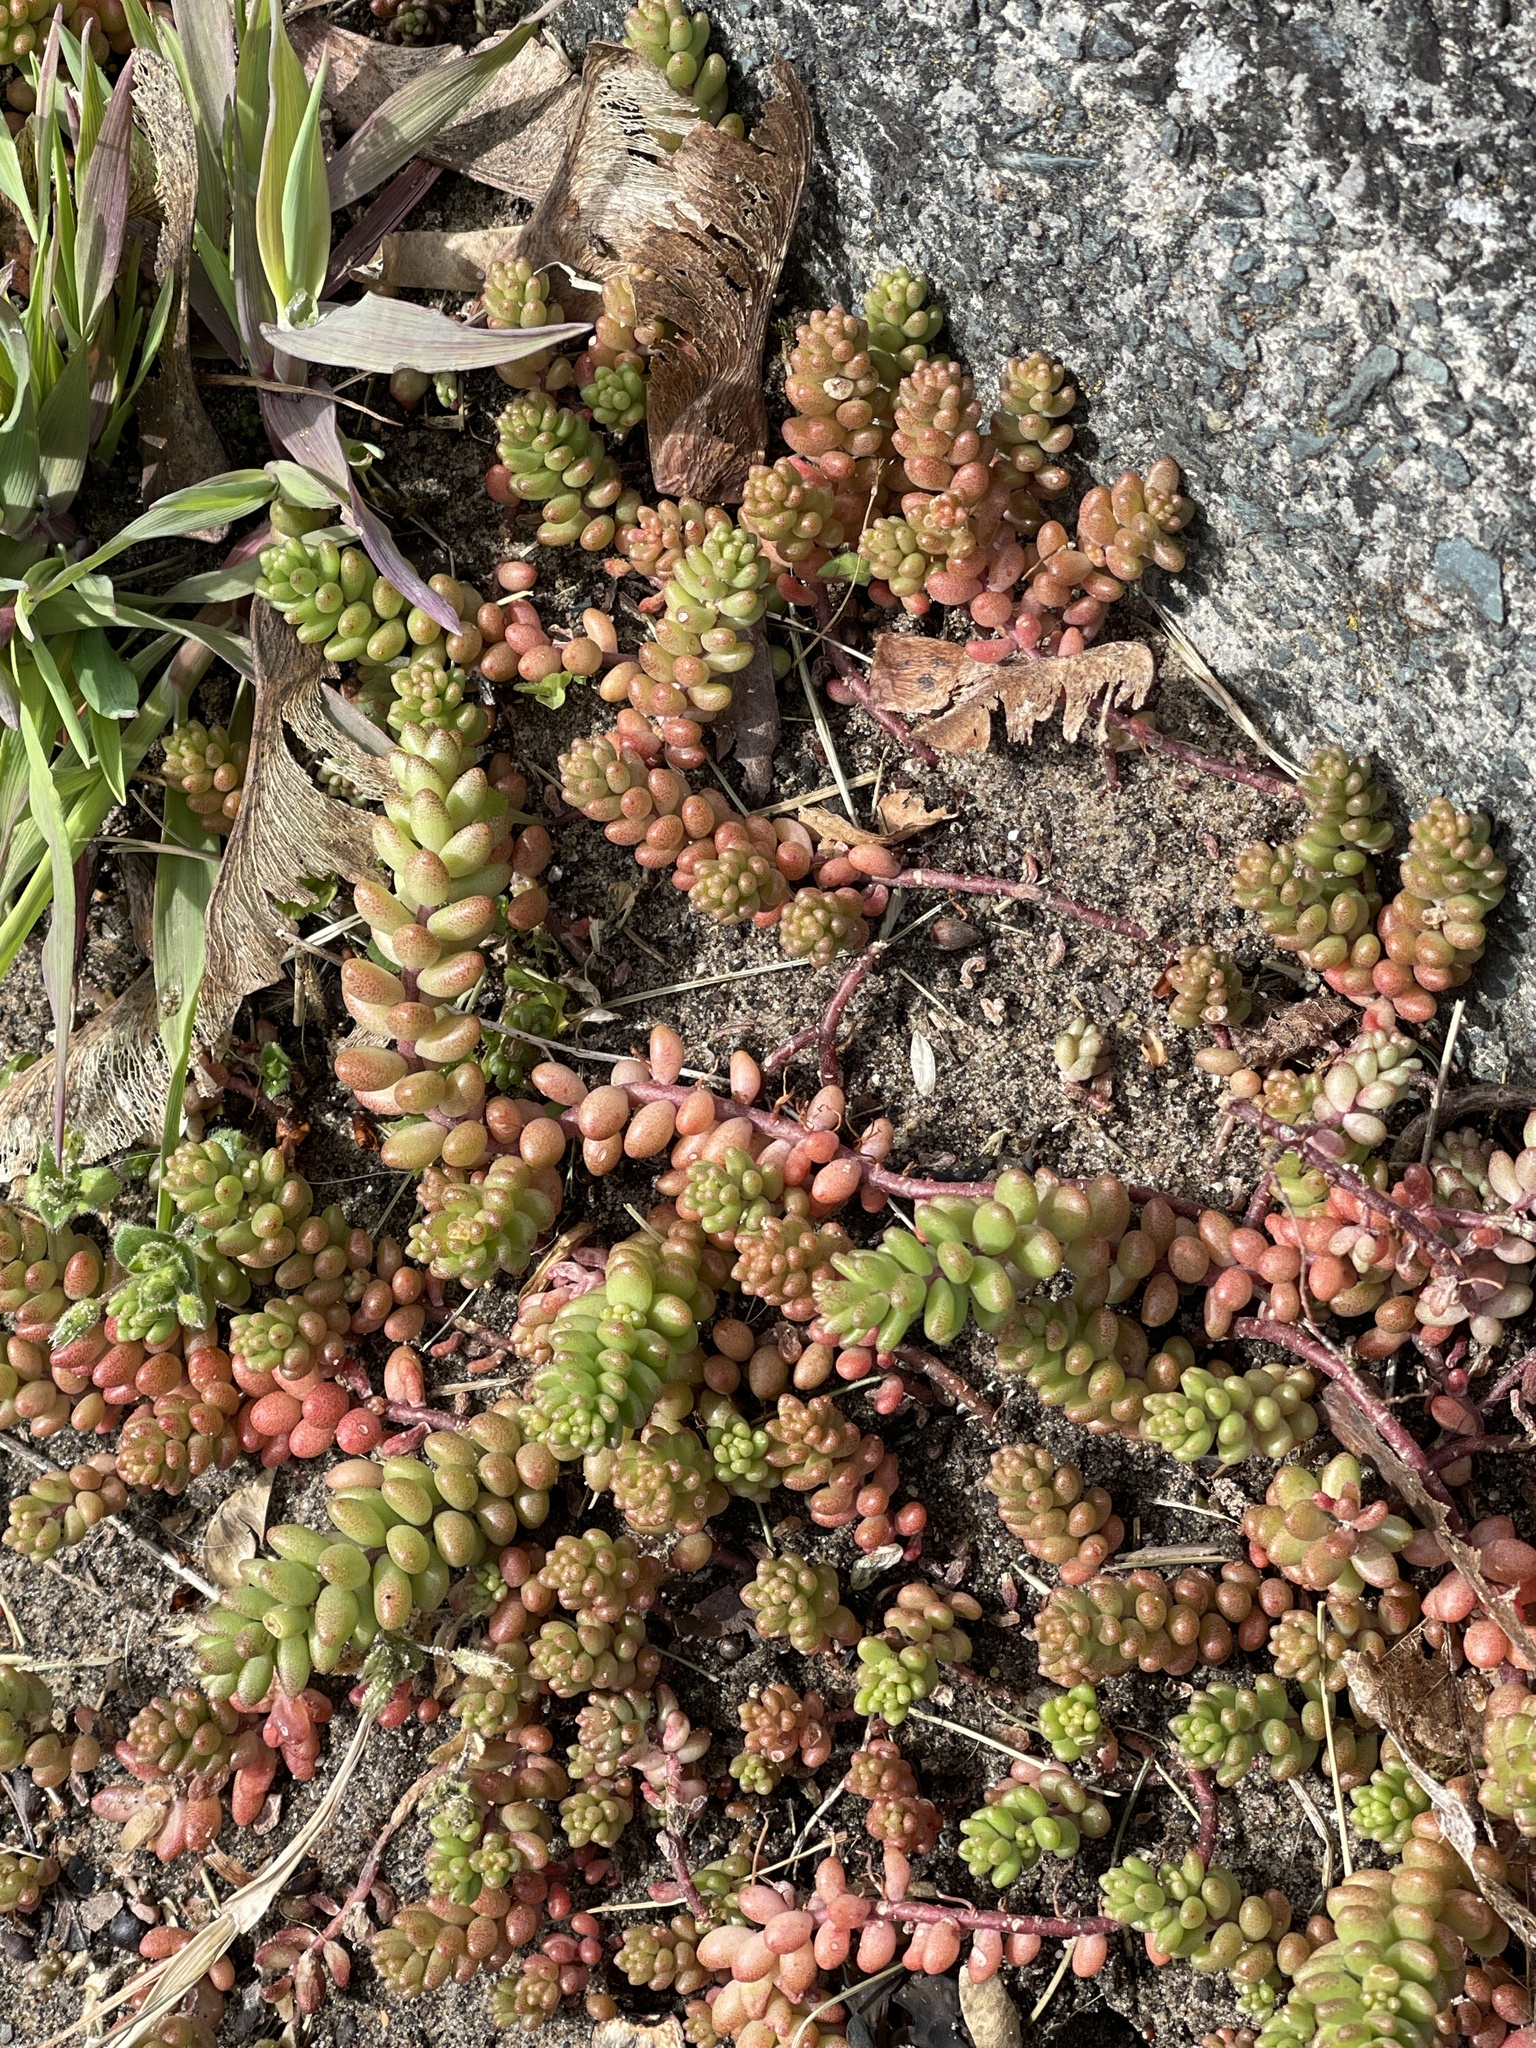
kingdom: Plantae
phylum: Tracheophyta
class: Magnoliopsida
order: Saxifragales
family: Crassulaceae
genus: Sedum
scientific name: Sedum album
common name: White stonecrop
